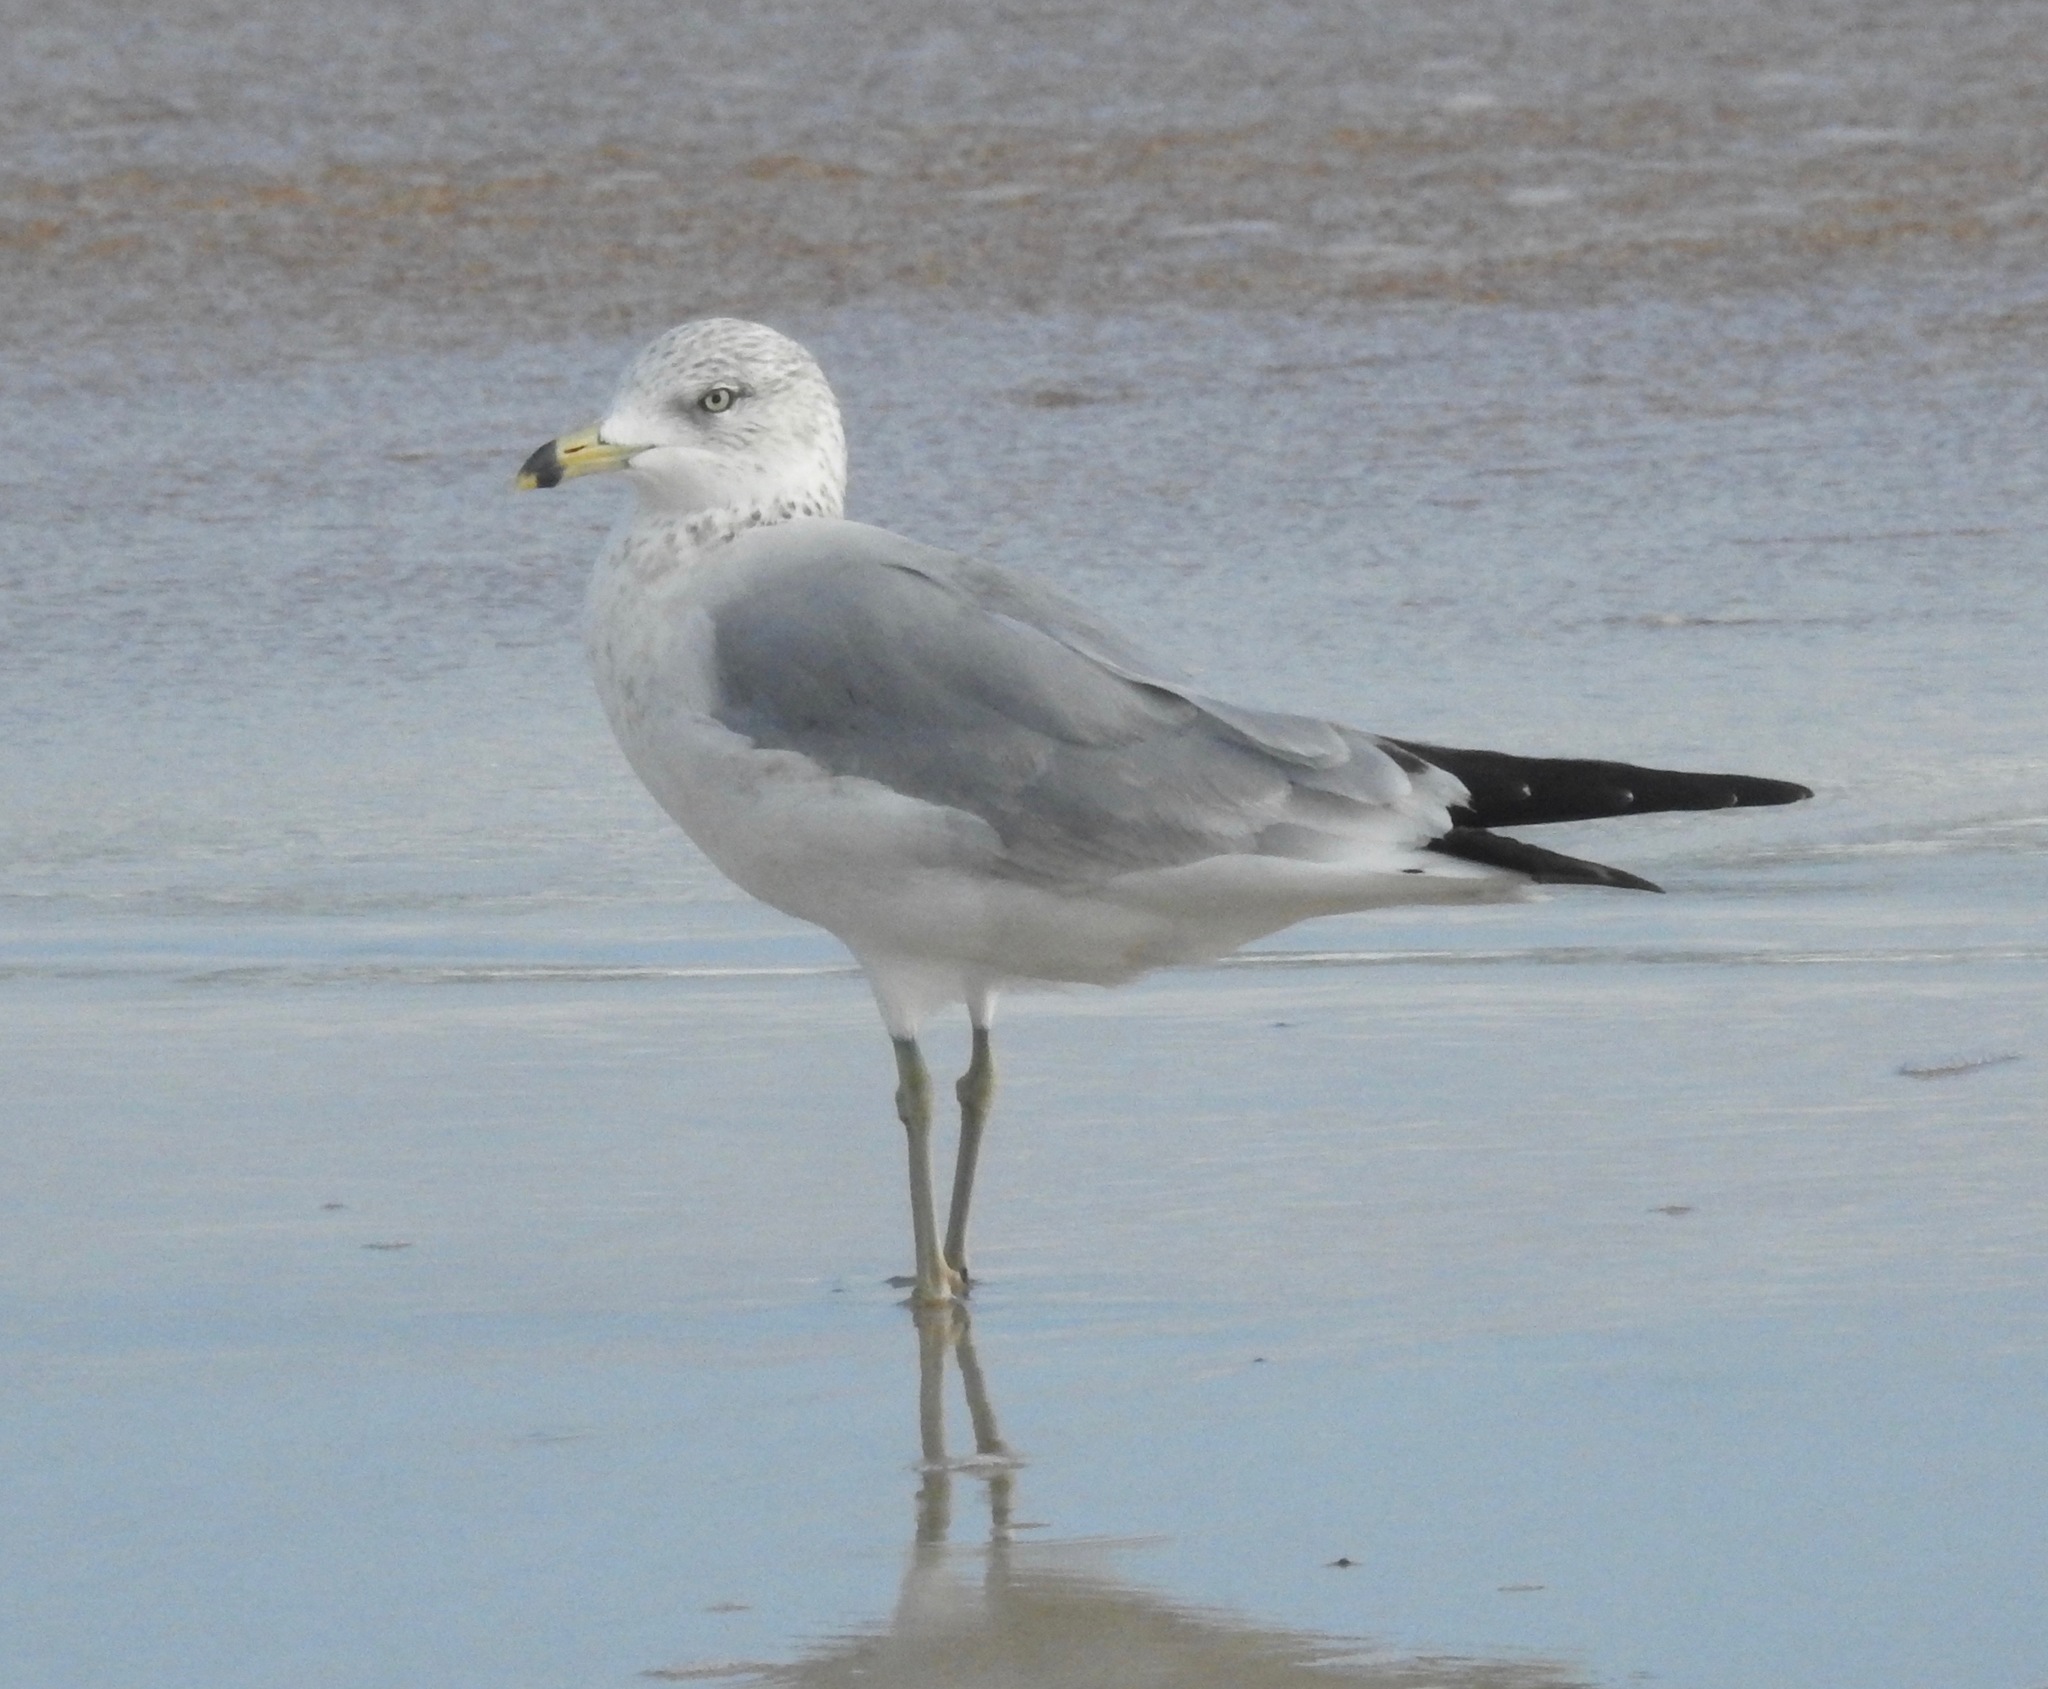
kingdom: Animalia
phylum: Chordata
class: Aves
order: Charadriiformes
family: Laridae
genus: Larus
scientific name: Larus delawarensis
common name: Ring-billed gull
